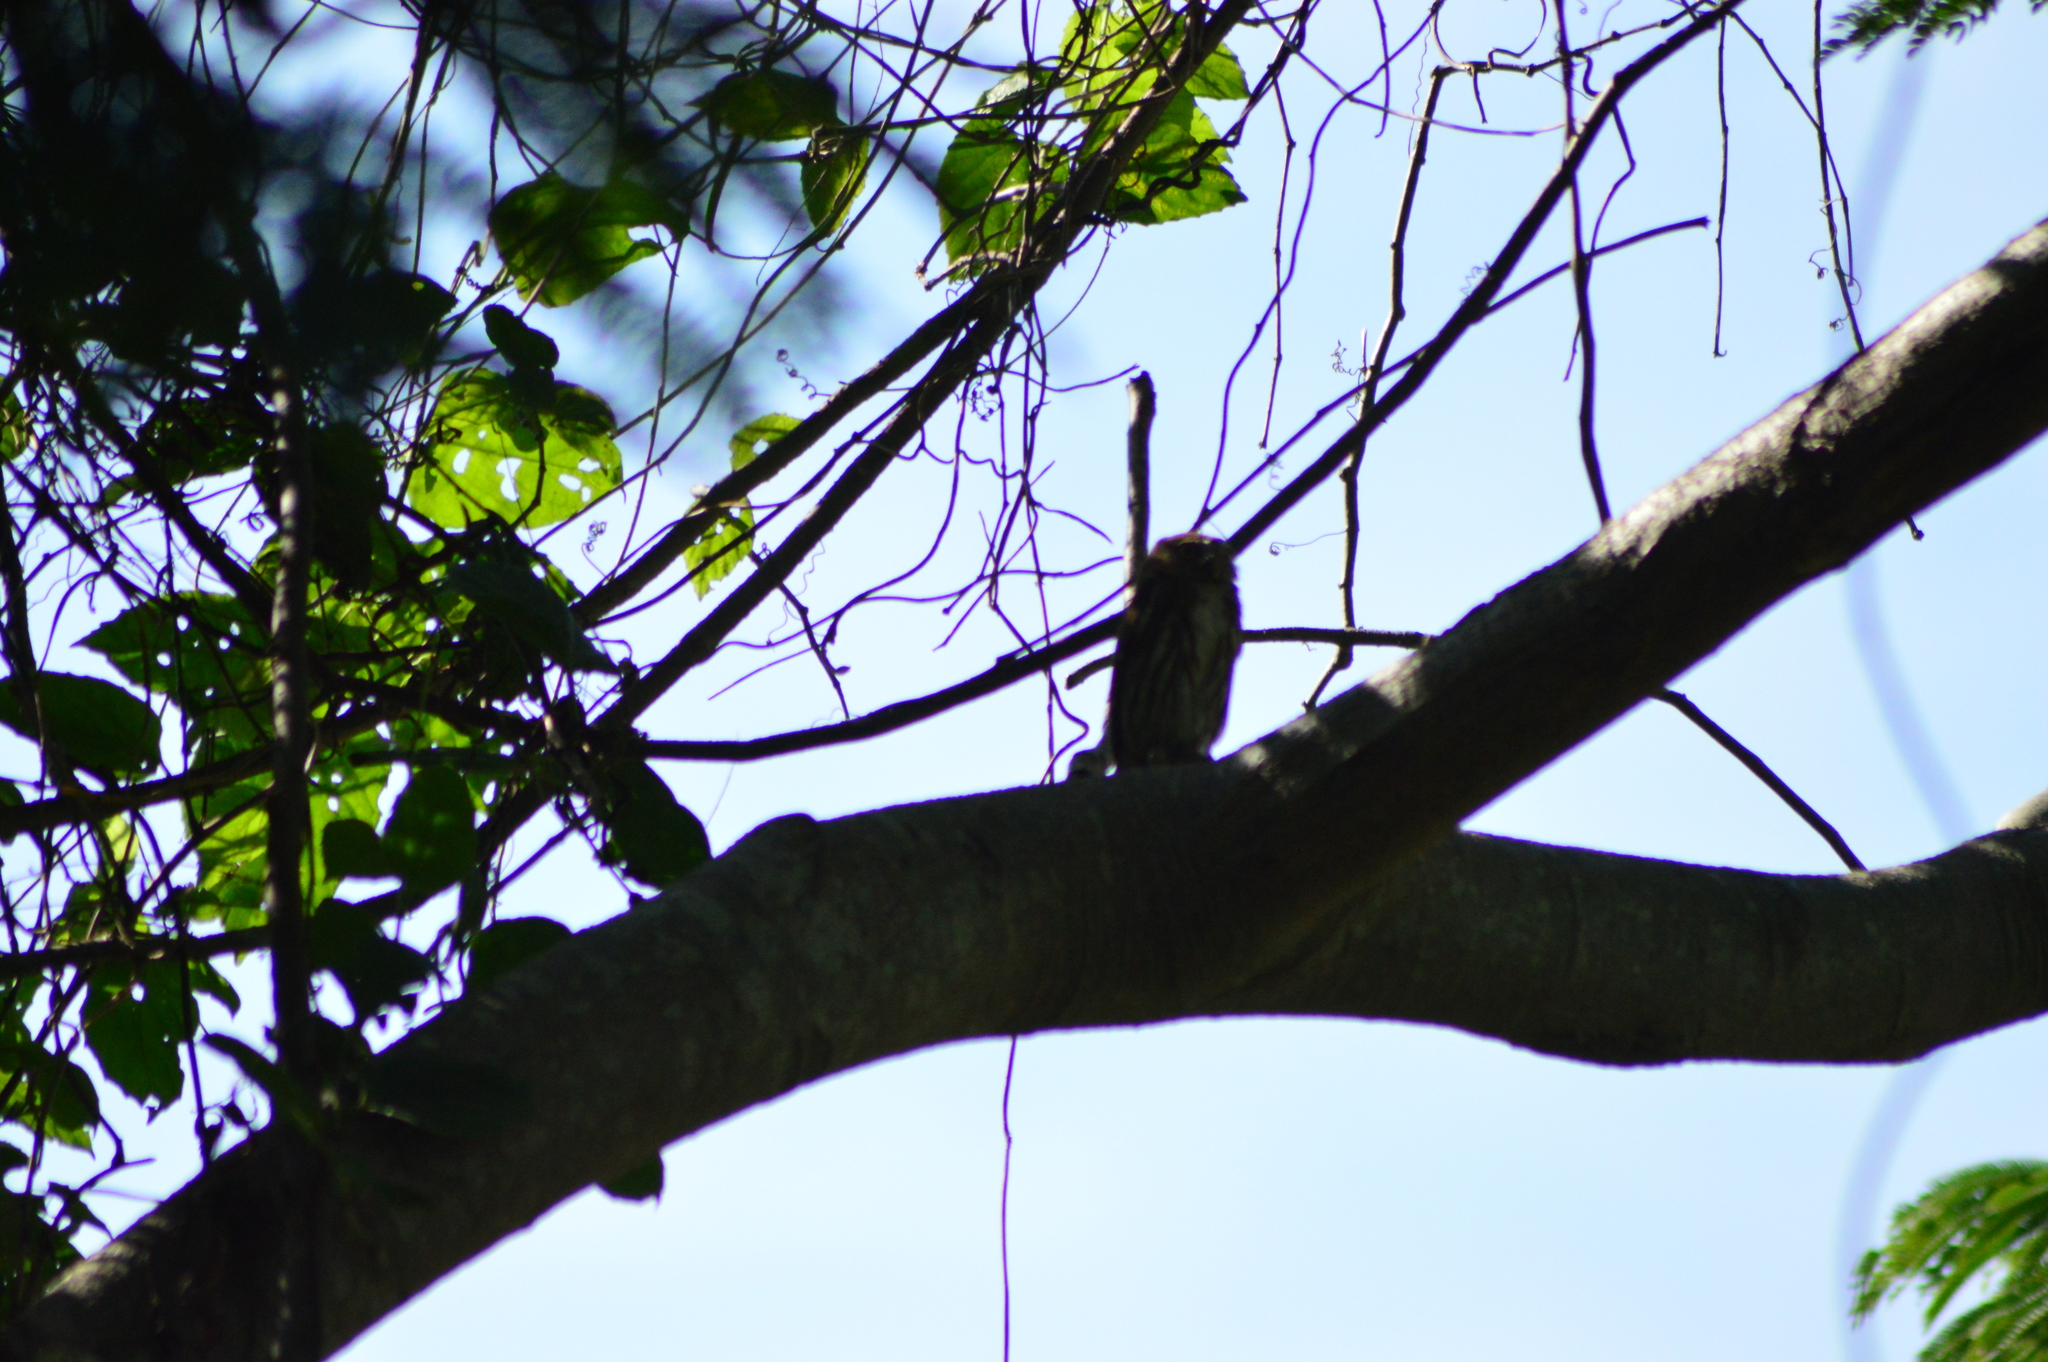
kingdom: Animalia
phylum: Chordata
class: Aves
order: Strigiformes
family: Strigidae
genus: Glaucidium
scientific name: Glaucidium brasilianum
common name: Ferruginous pygmy-owl
